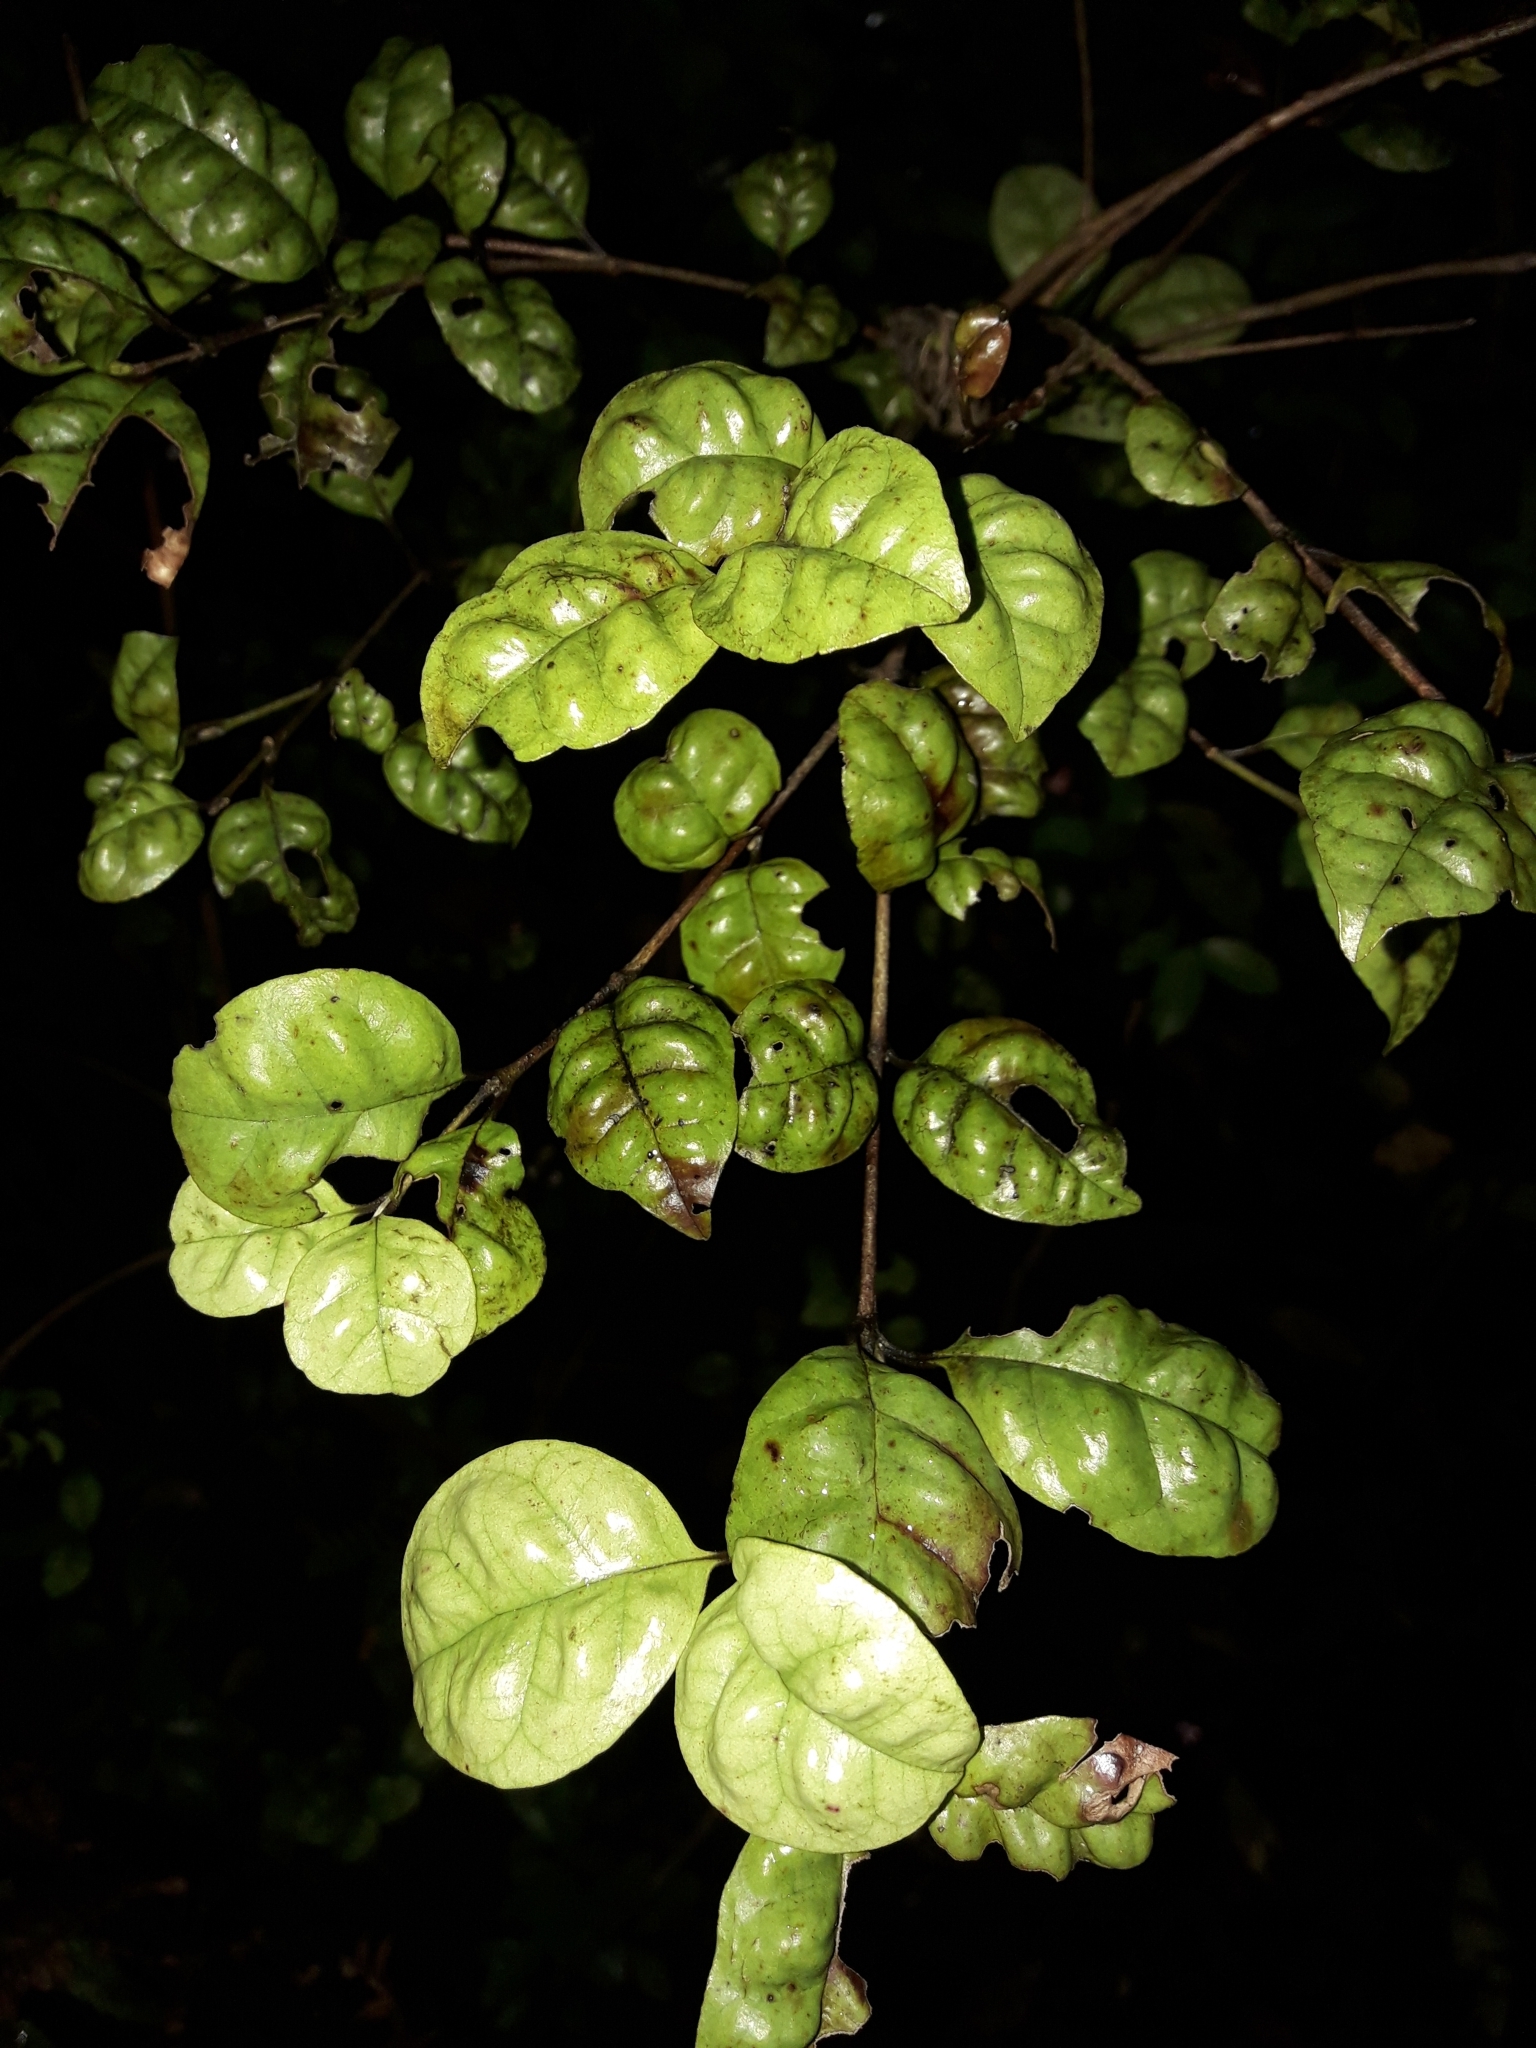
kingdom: Plantae
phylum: Tracheophyta
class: Magnoliopsida
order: Myrtales
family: Myrtaceae
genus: Lophomyrtus
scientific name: Lophomyrtus bullata
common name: Rama rama
